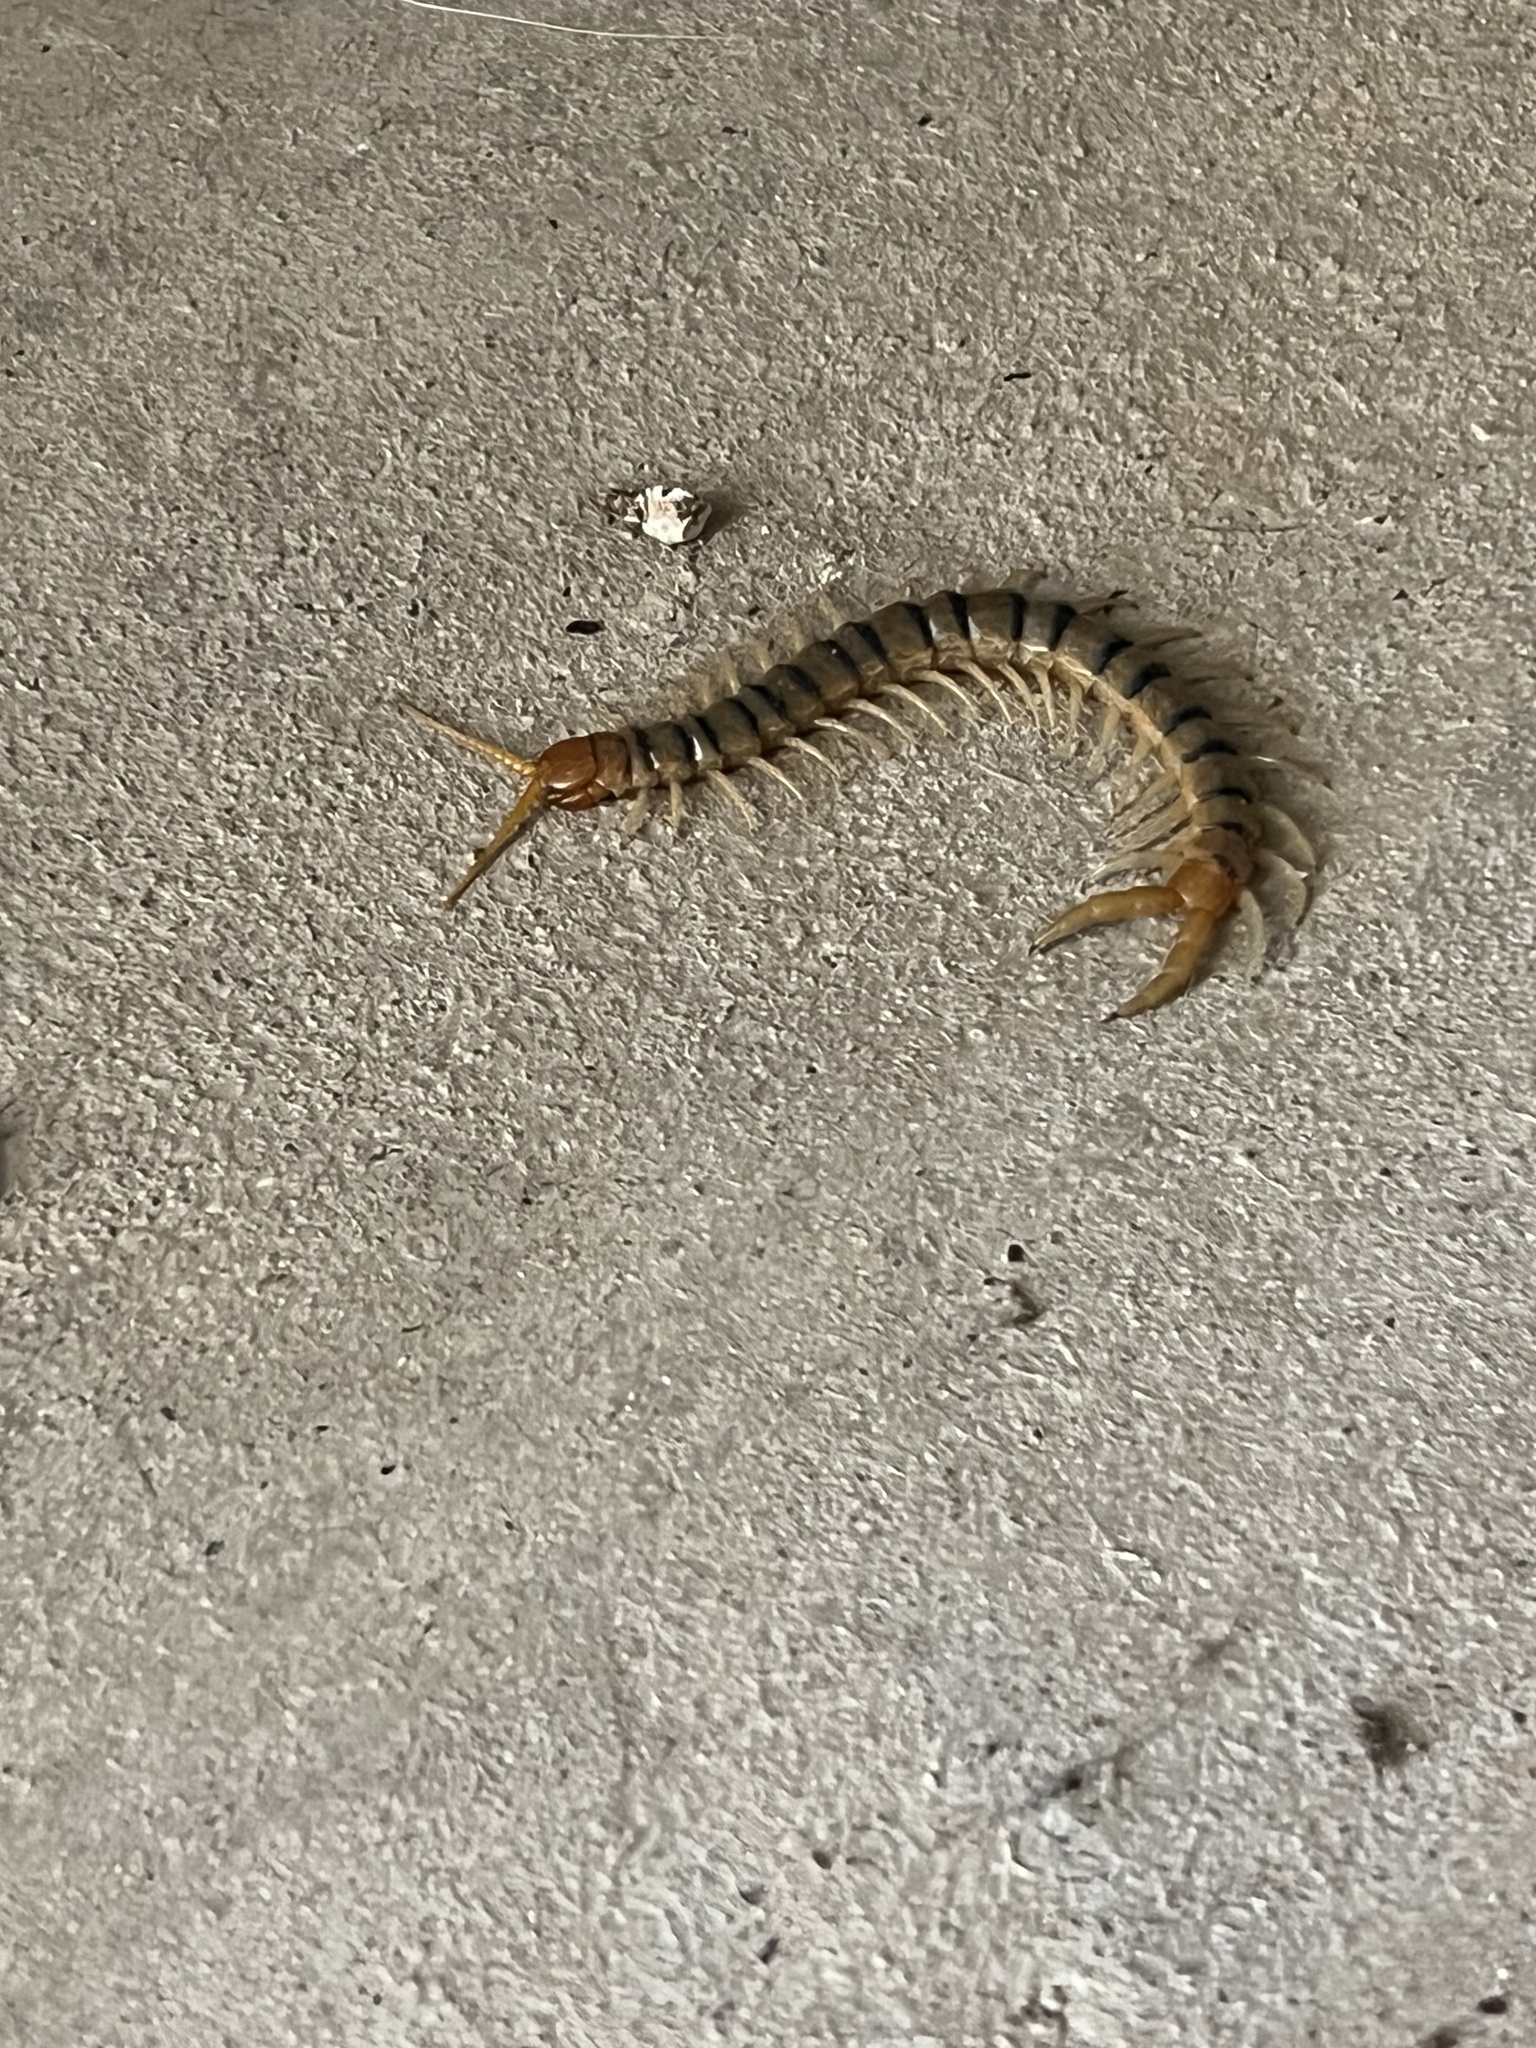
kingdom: Animalia
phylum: Arthropoda
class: Chilopoda
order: Scolopendromorpha
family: Scolopendridae
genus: Scolopendra
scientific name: Scolopendra polymorpha
